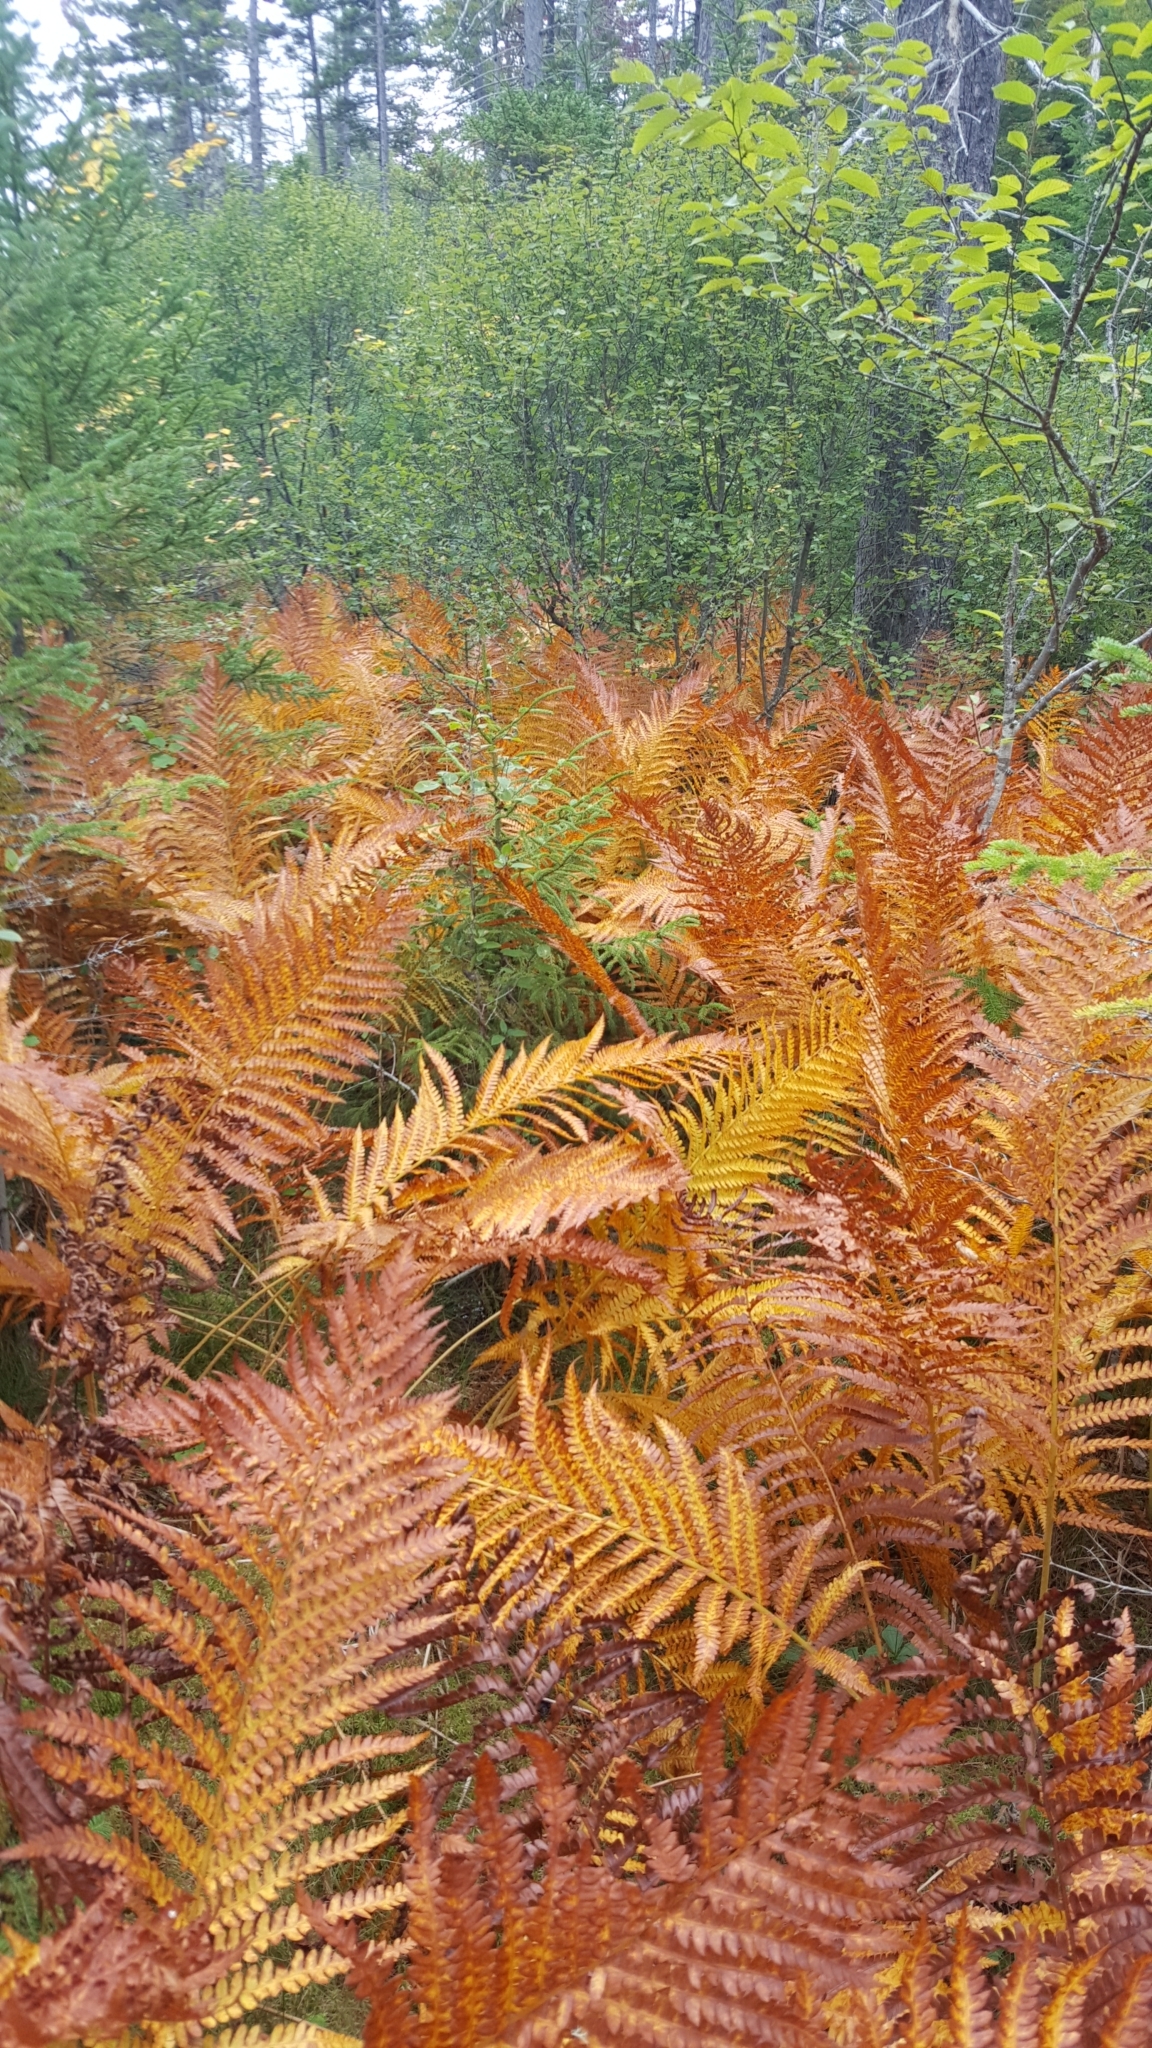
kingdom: Plantae
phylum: Tracheophyta
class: Polypodiopsida
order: Osmundales
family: Osmundaceae
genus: Osmundastrum
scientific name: Osmundastrum cinnamomeum
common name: Cinnamon fern
